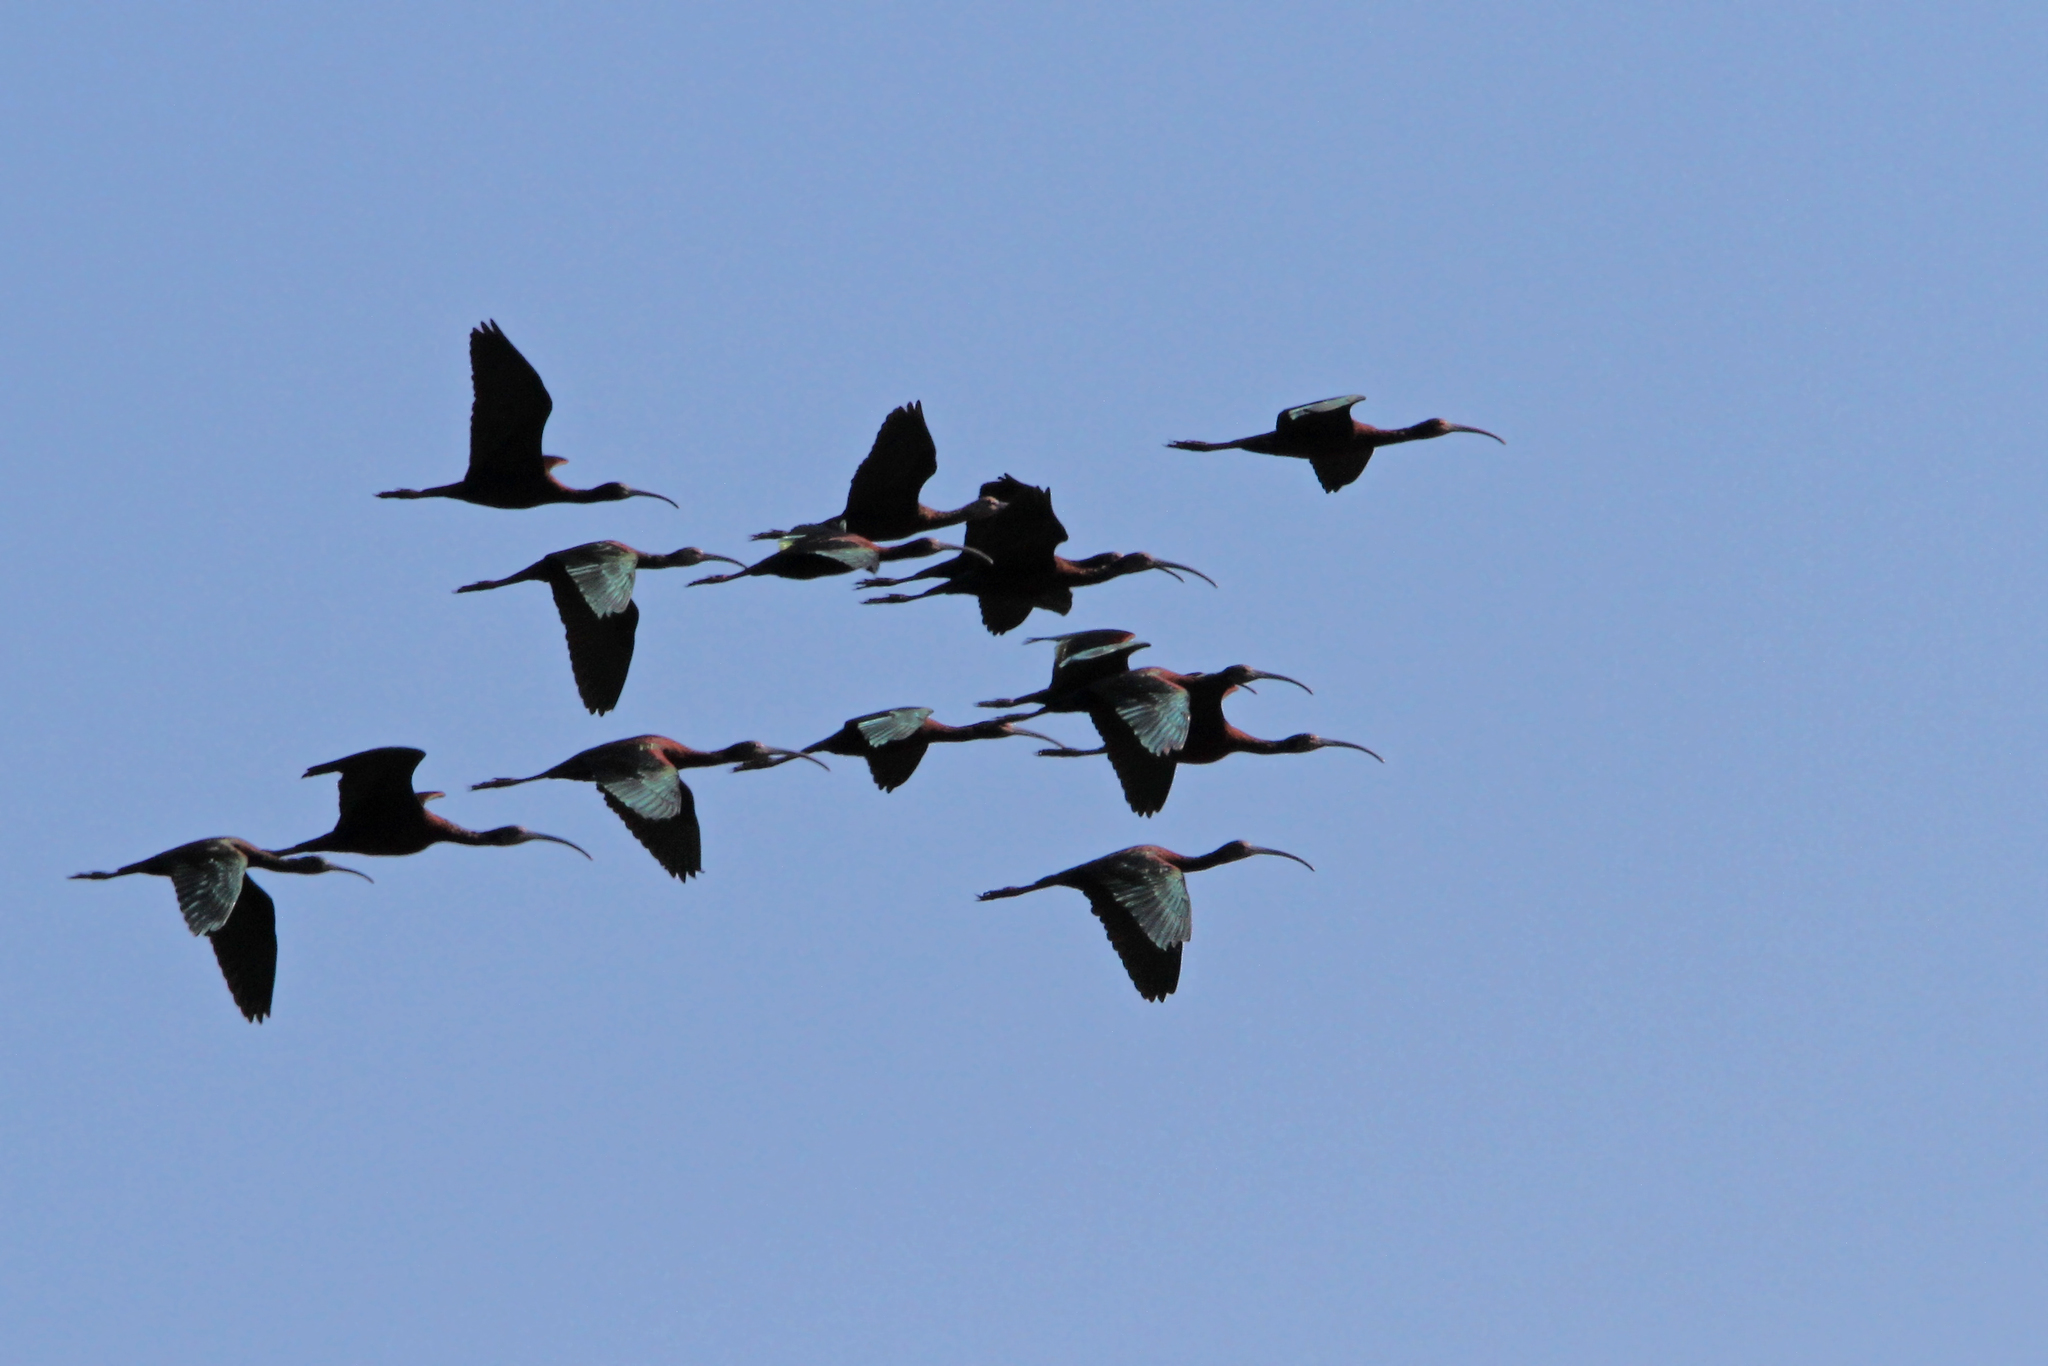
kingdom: Animalia
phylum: Chordata
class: Aves
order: Pelecaniformes
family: Threskiornithidae
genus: Plegadis
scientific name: Plegadis chihi
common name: White-faced ibis
